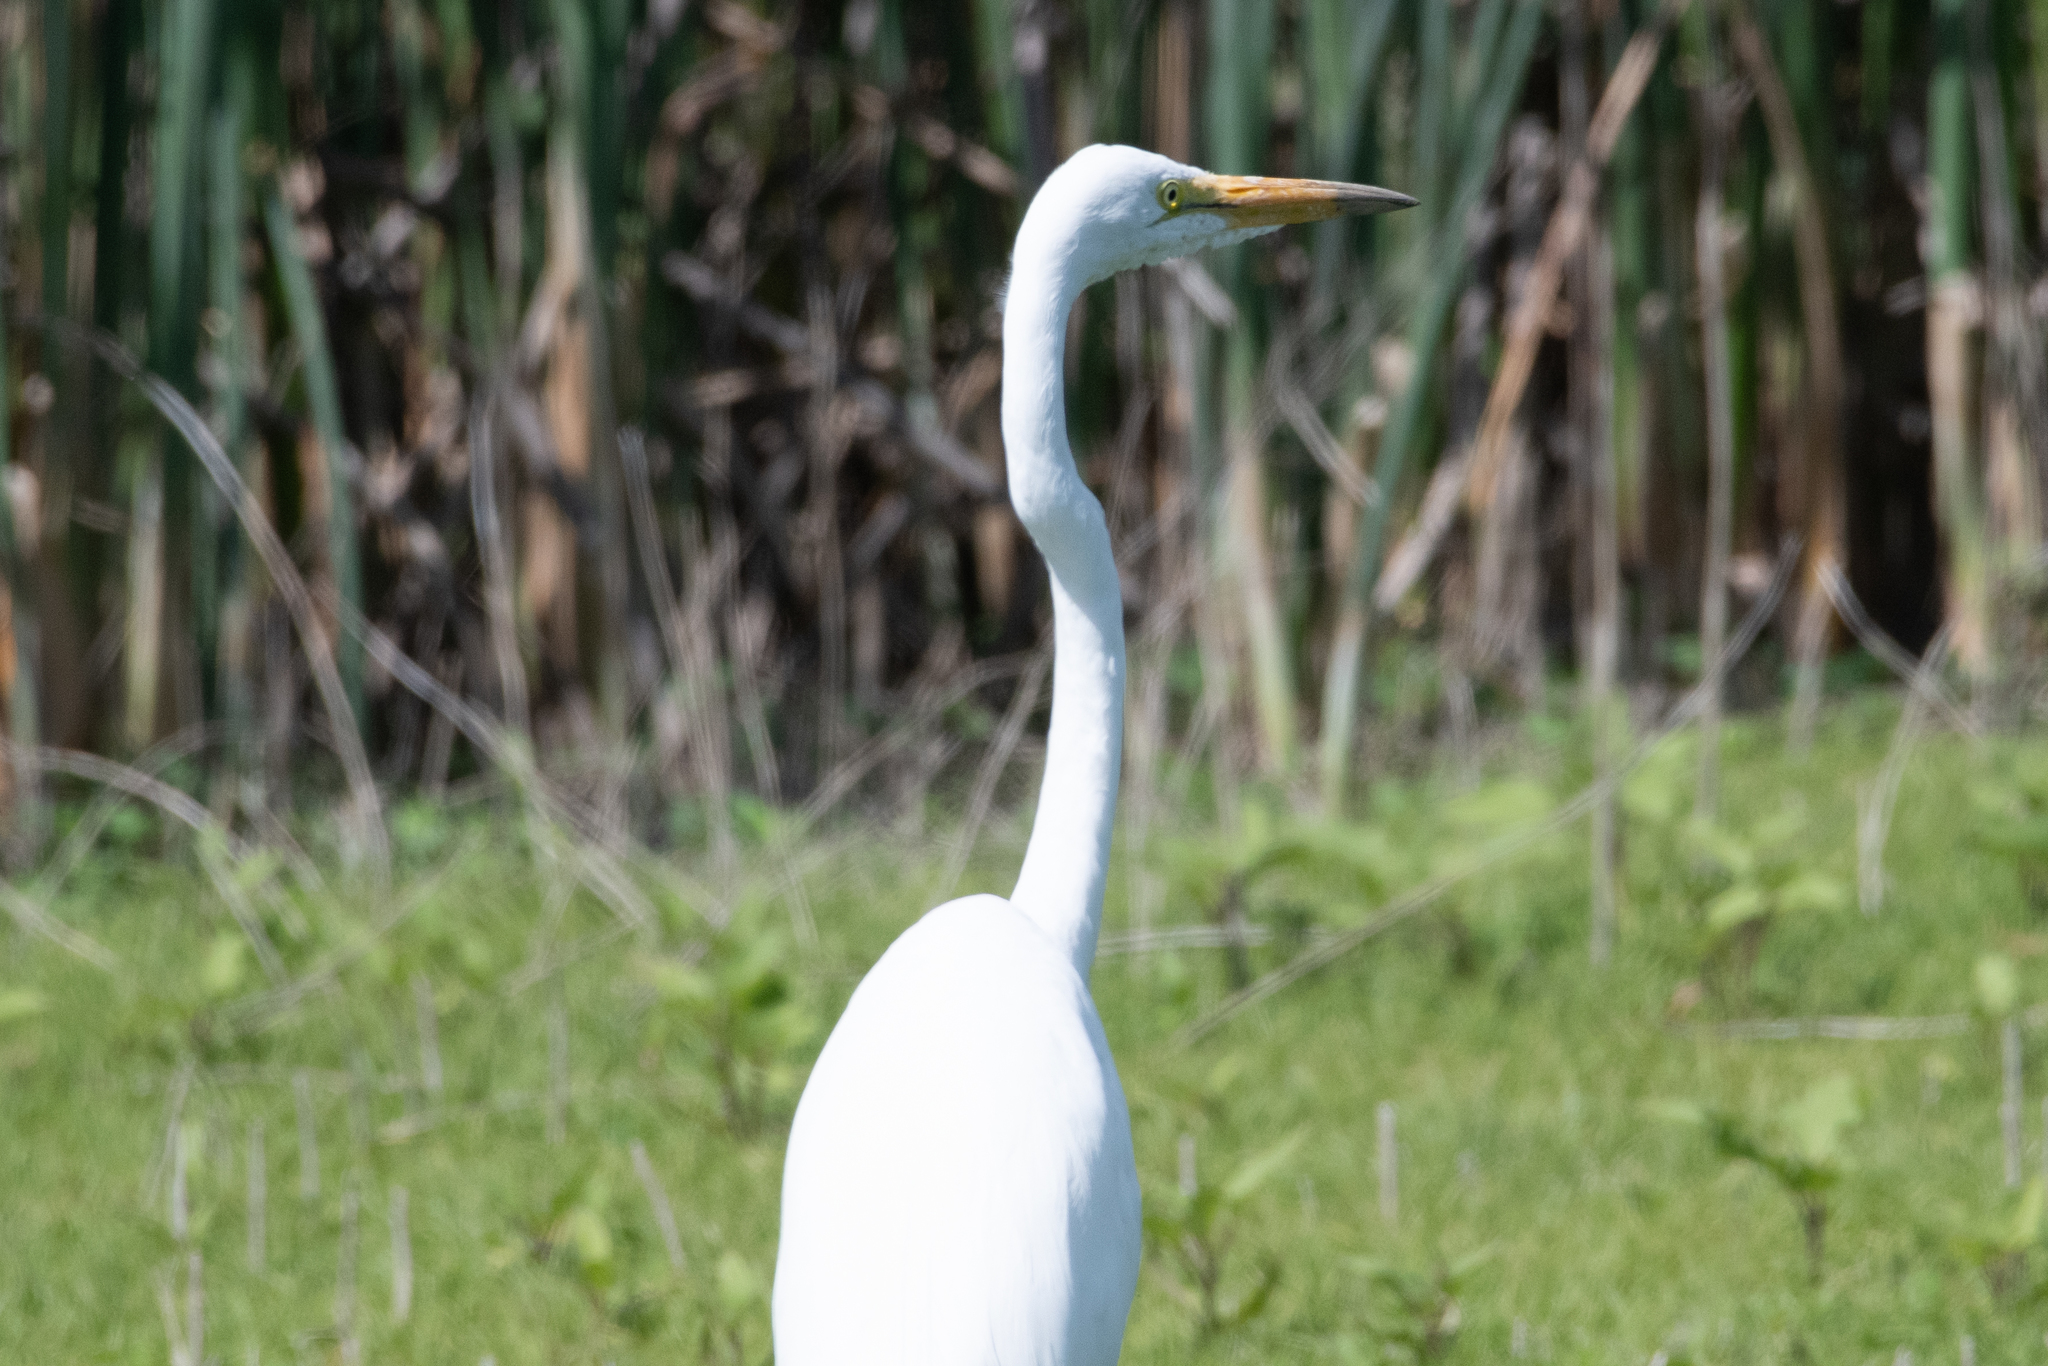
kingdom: Animalia
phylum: Chordata
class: Aves
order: Pelecaniformes
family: Ardeidae
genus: Ardea
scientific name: Ardea alba
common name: Great egret
